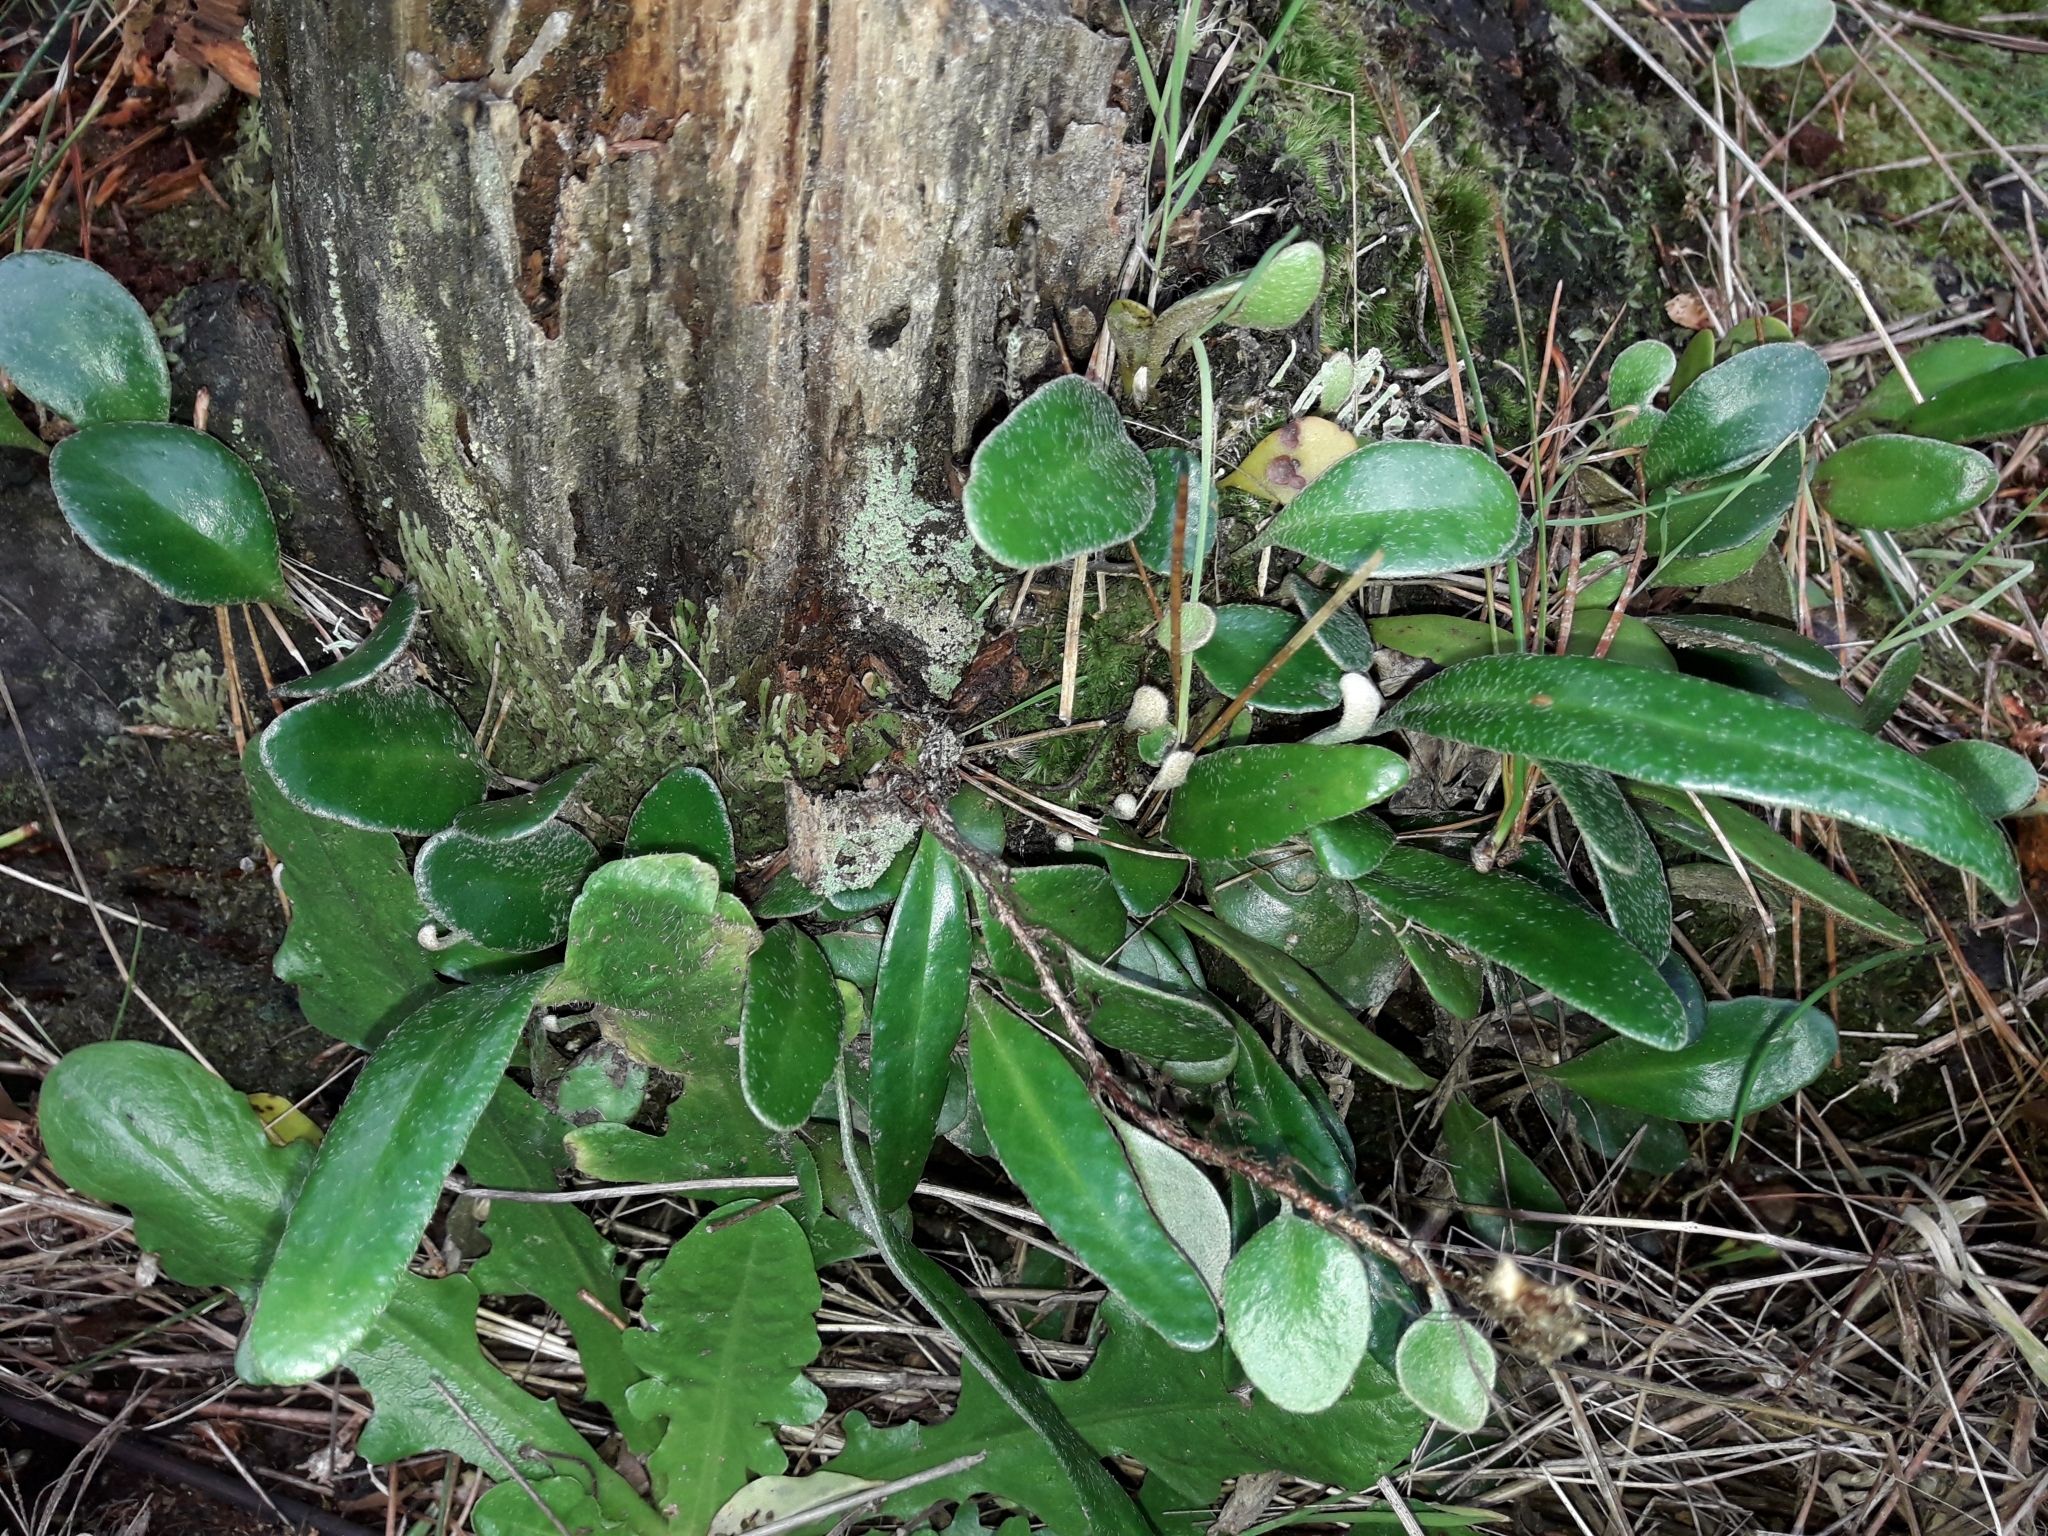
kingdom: Plantae
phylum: Tracheophyta
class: Polypodiopsida
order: Polypodiales
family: Polypodiaceae
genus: Pyrrosia
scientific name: Pyrrosia eleagnifolia
